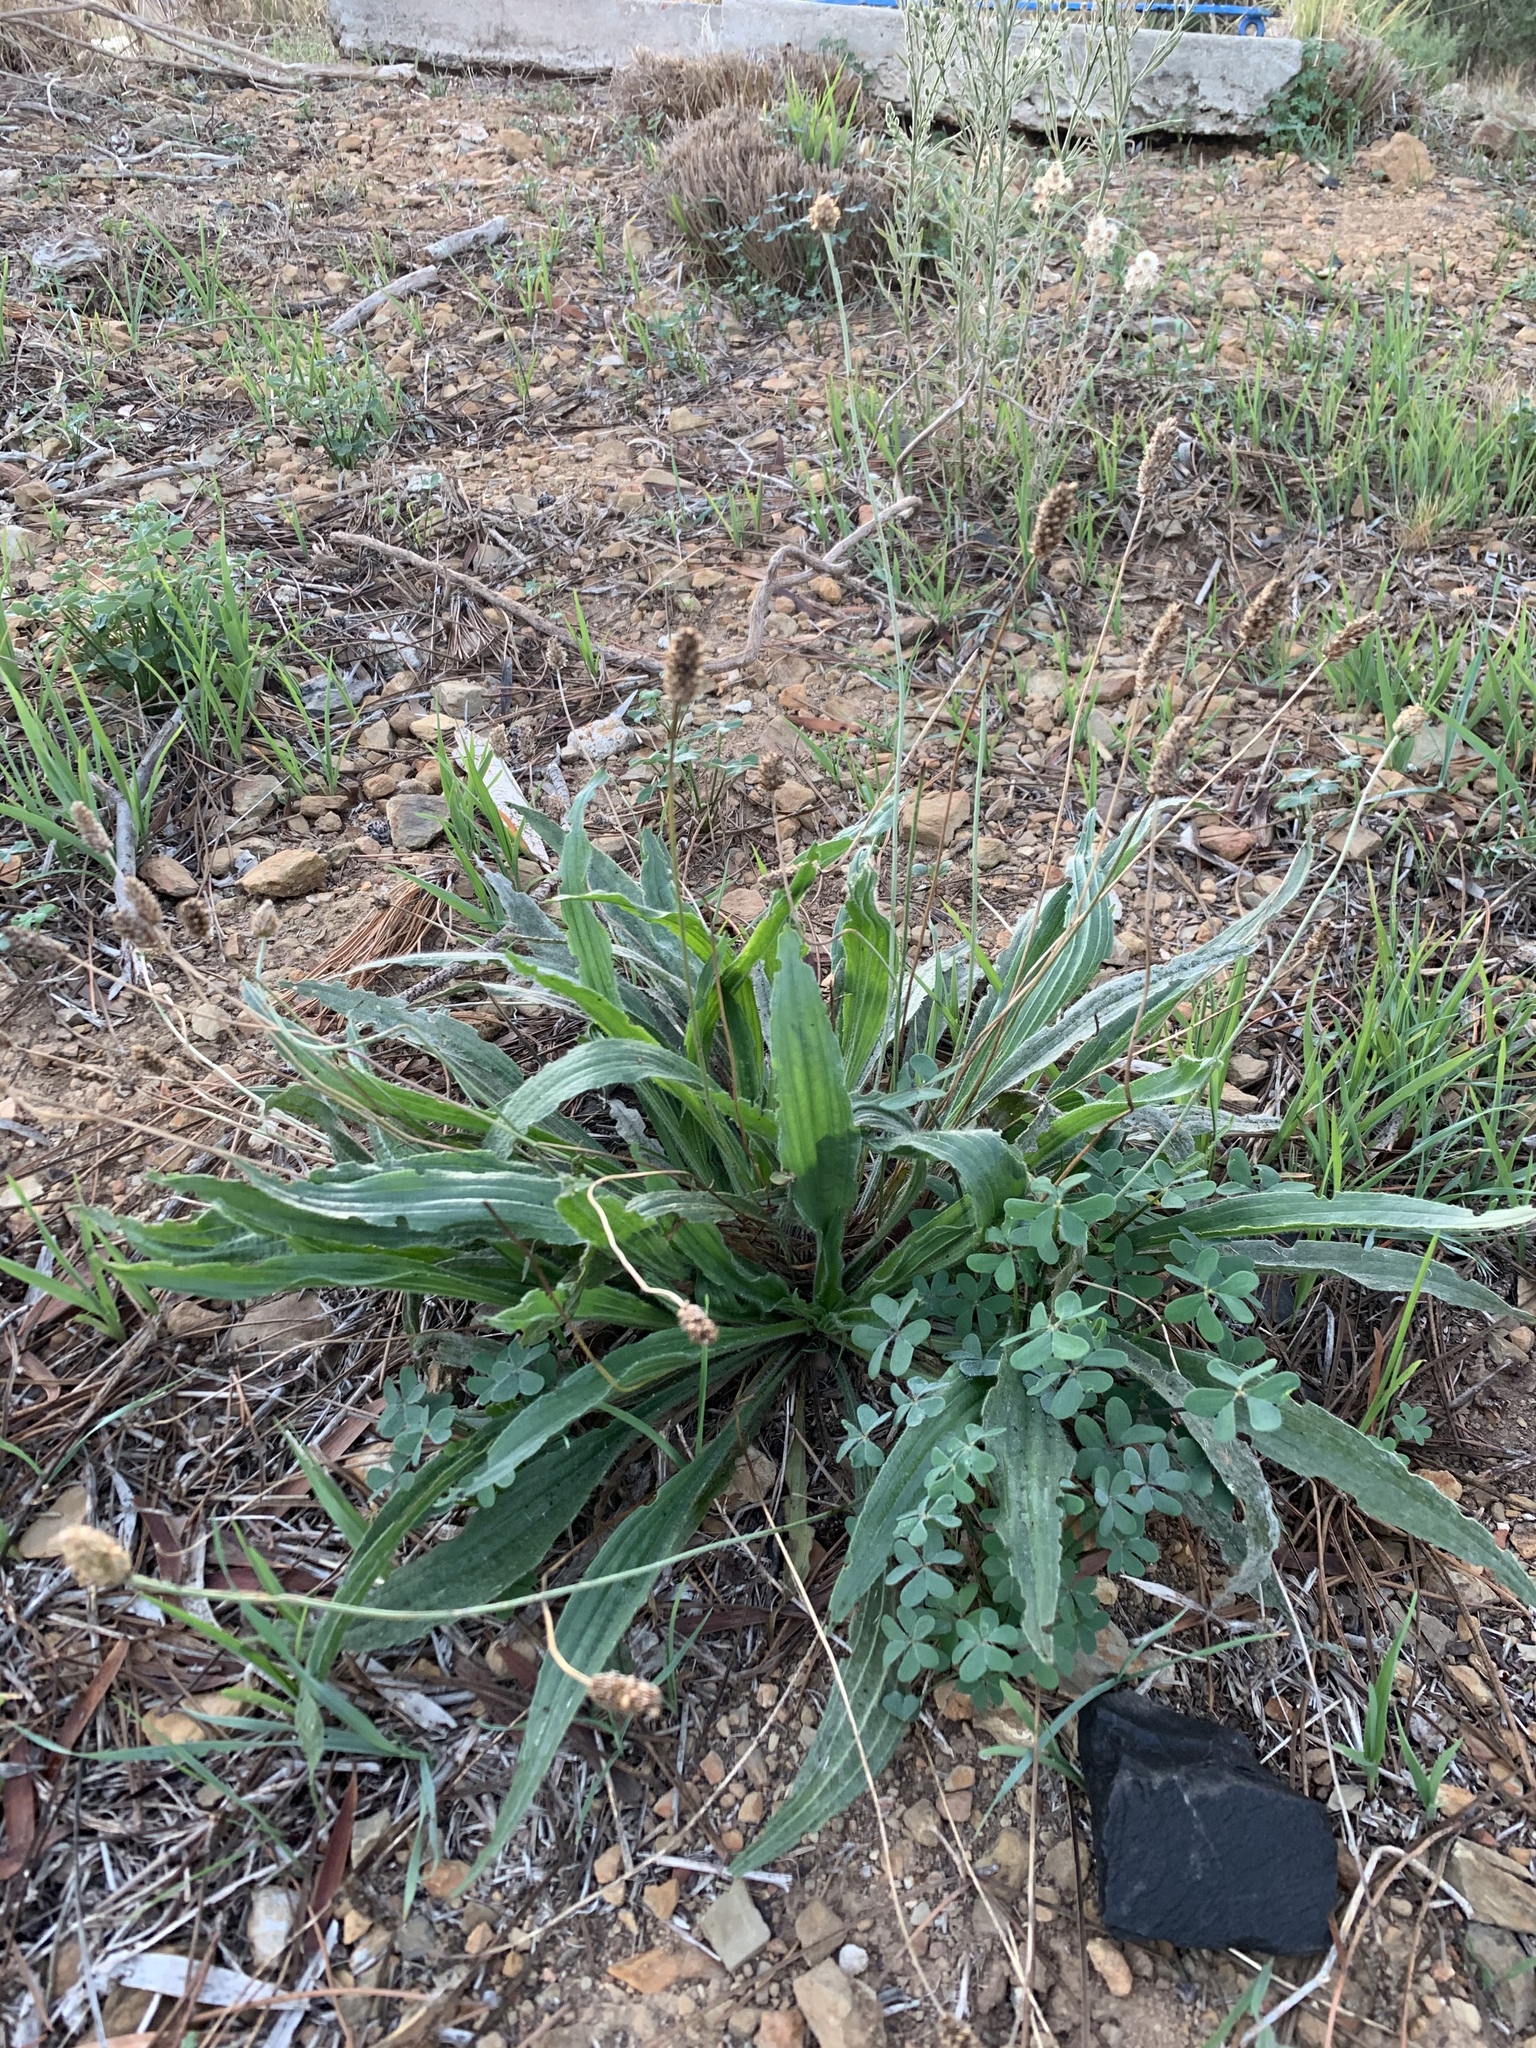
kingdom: Plantae
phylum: Tracheophyta
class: Magnoliopsida
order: Lamiales
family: Plantaginaceae
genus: Plantago
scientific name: Plantago lanceolata
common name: Ribwort plantain
